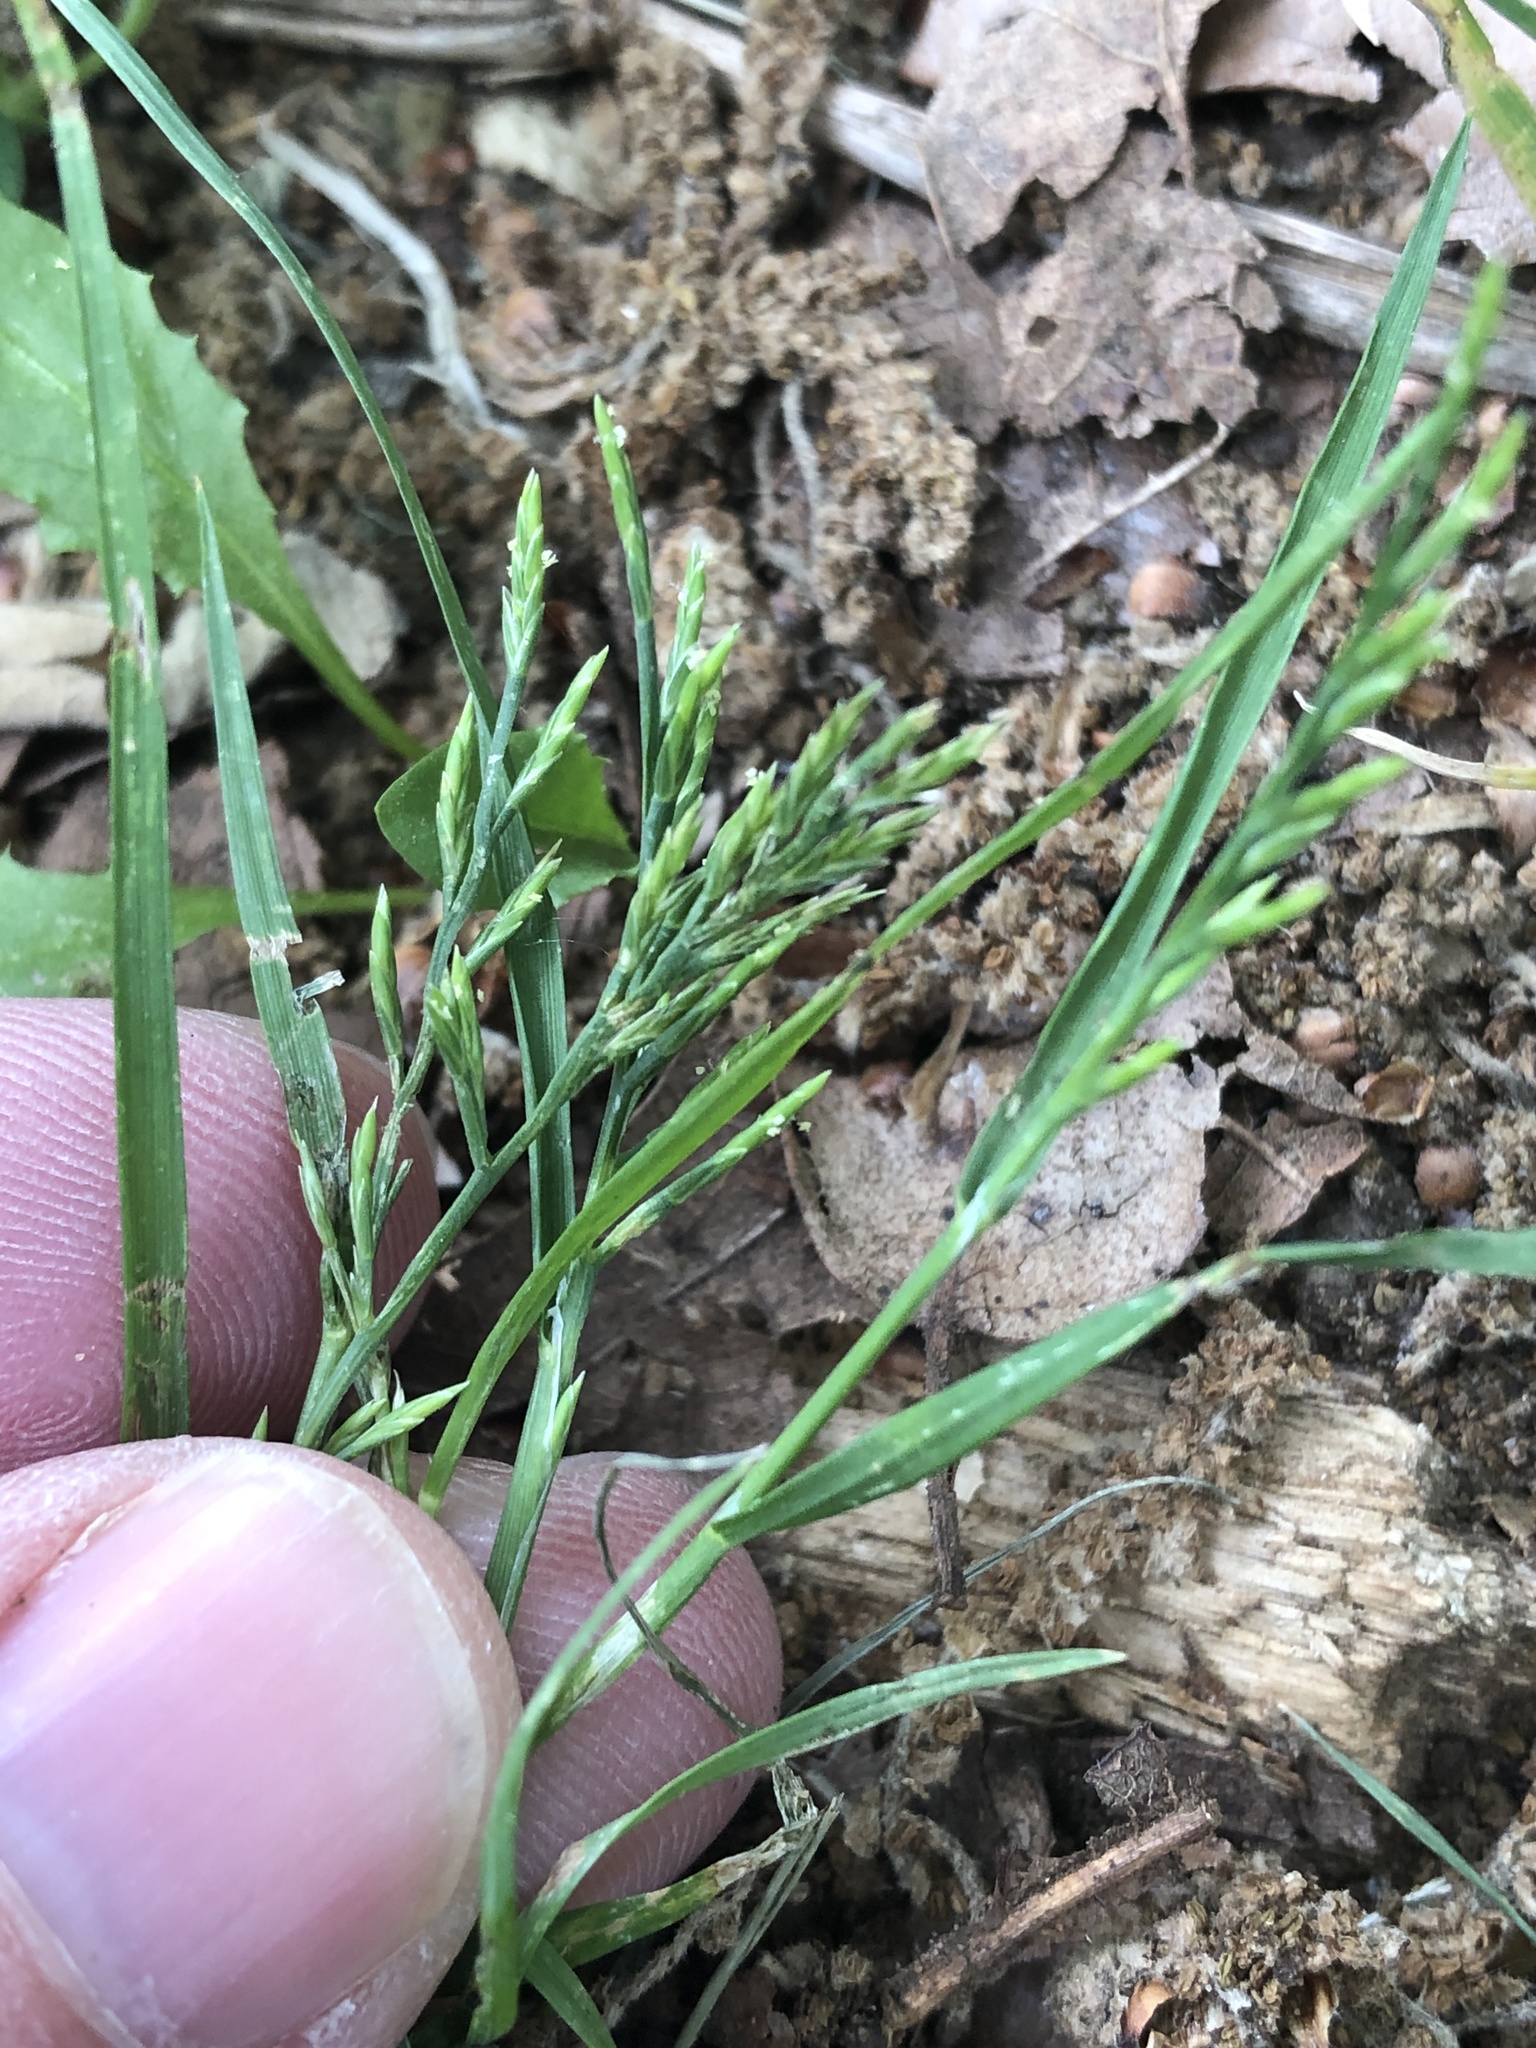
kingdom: Plantae
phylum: Tracheophyta
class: Liliopsida
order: Poales
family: Poaceae
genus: Catapodium
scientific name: Catapodium rigidum
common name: Fern-grass
